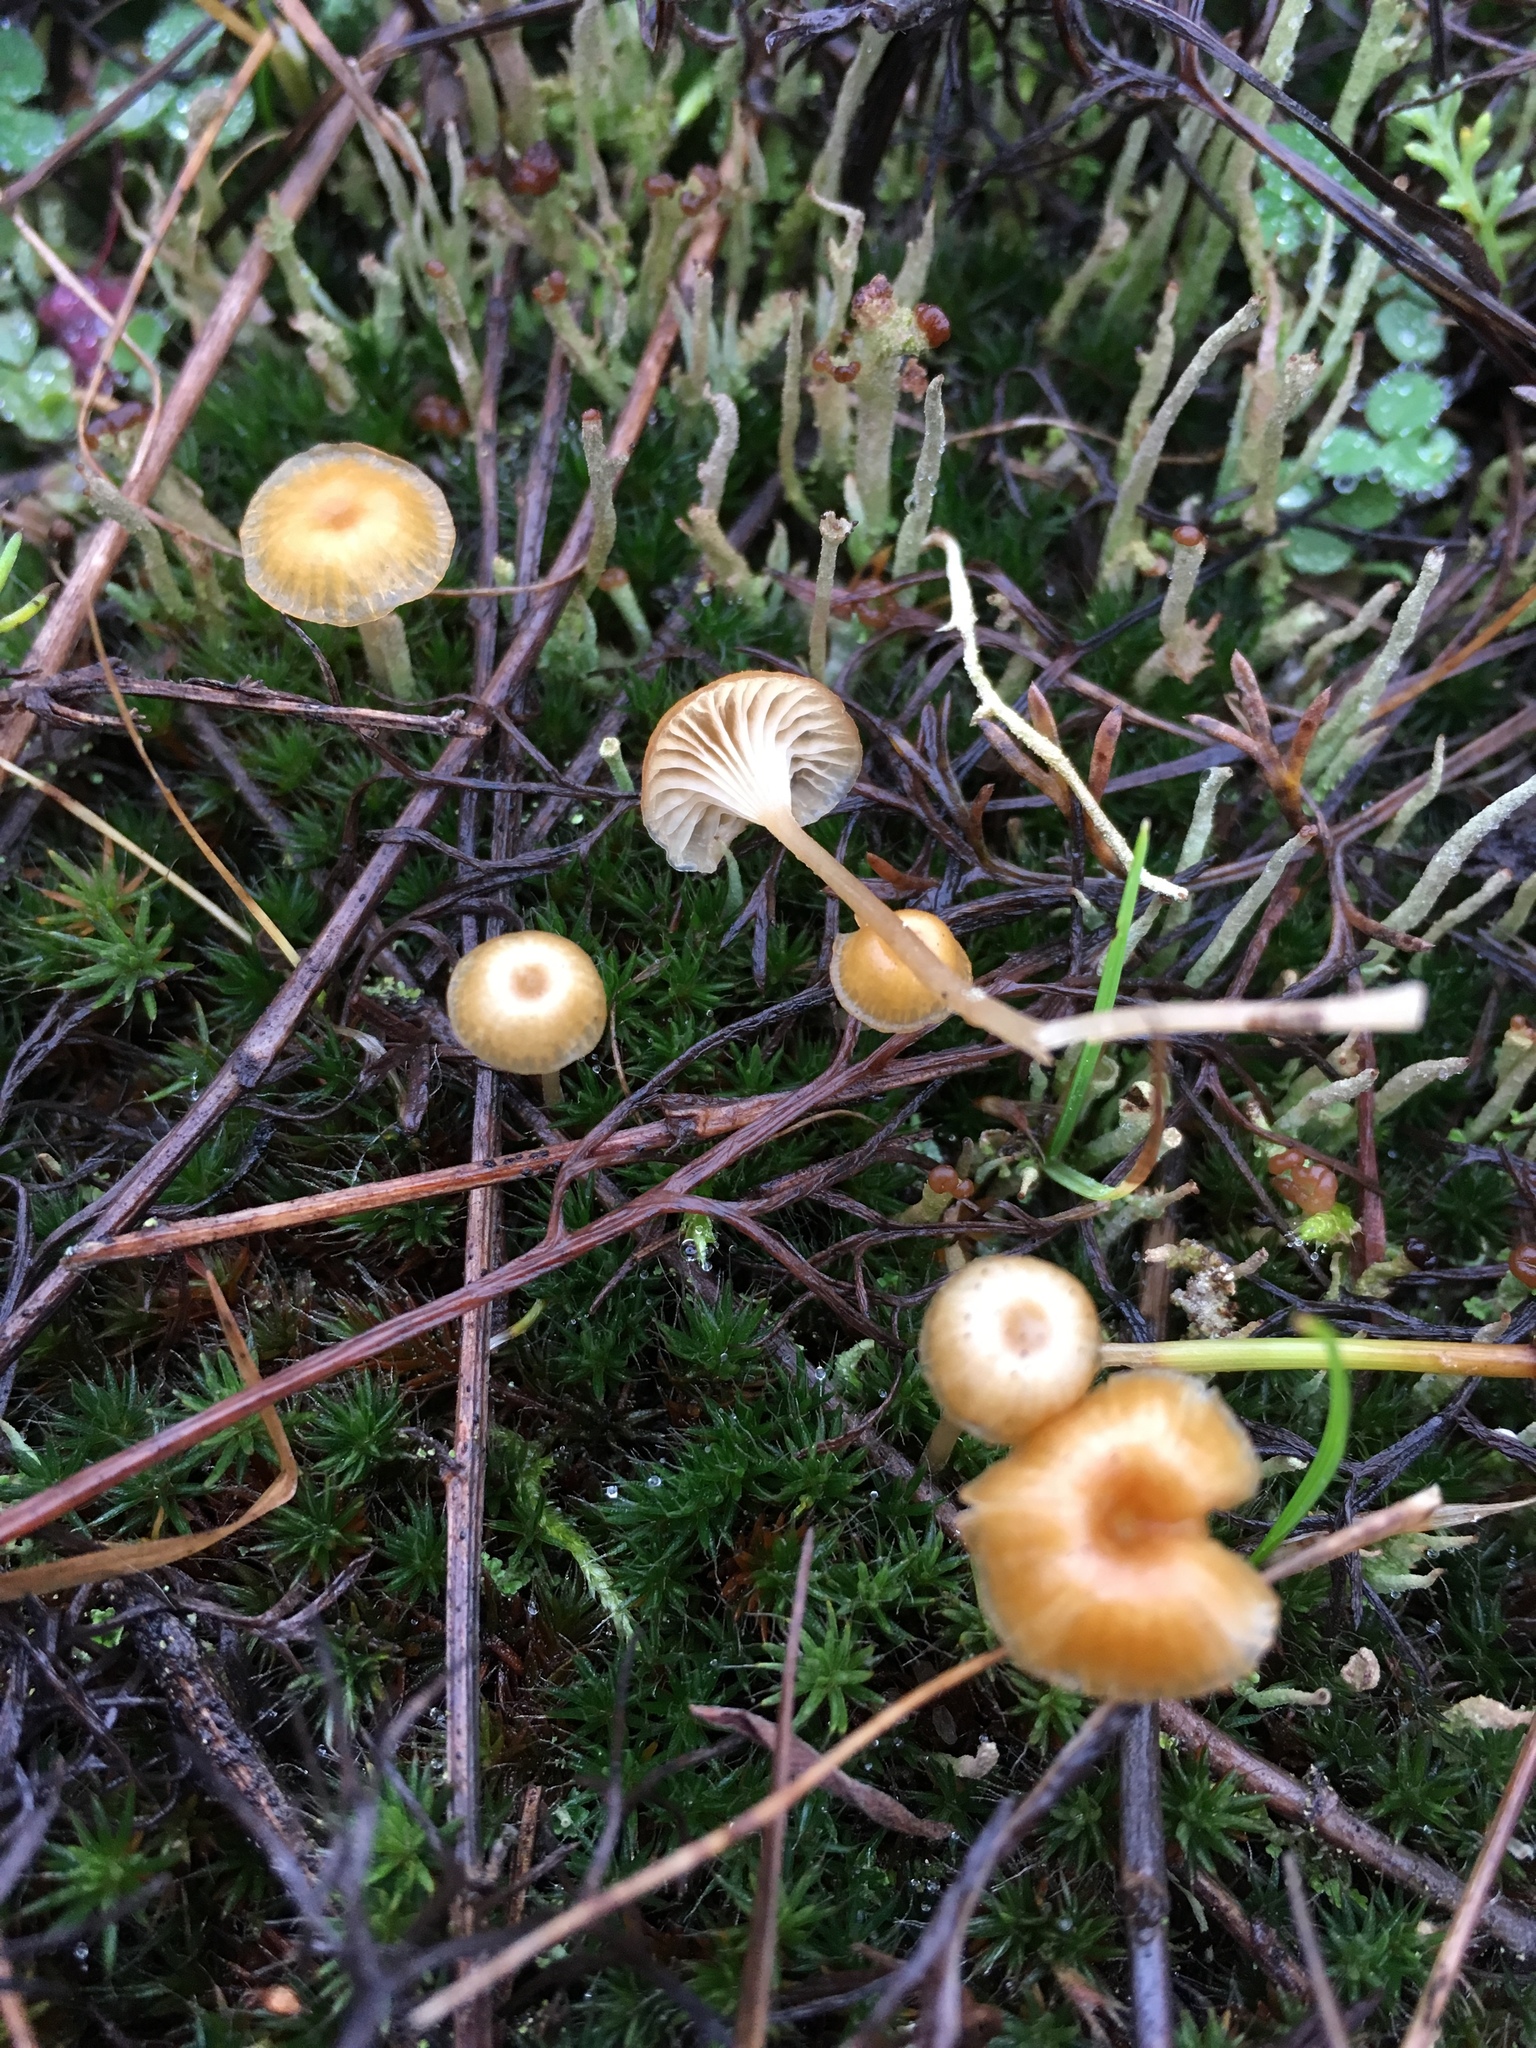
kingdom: Fungi
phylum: Basidiomycota
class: Agaricomycetes
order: Hymenochaetales
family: Rickenellaceae
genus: Rickenella
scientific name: Rickenella fibula
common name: Orange mosscap
